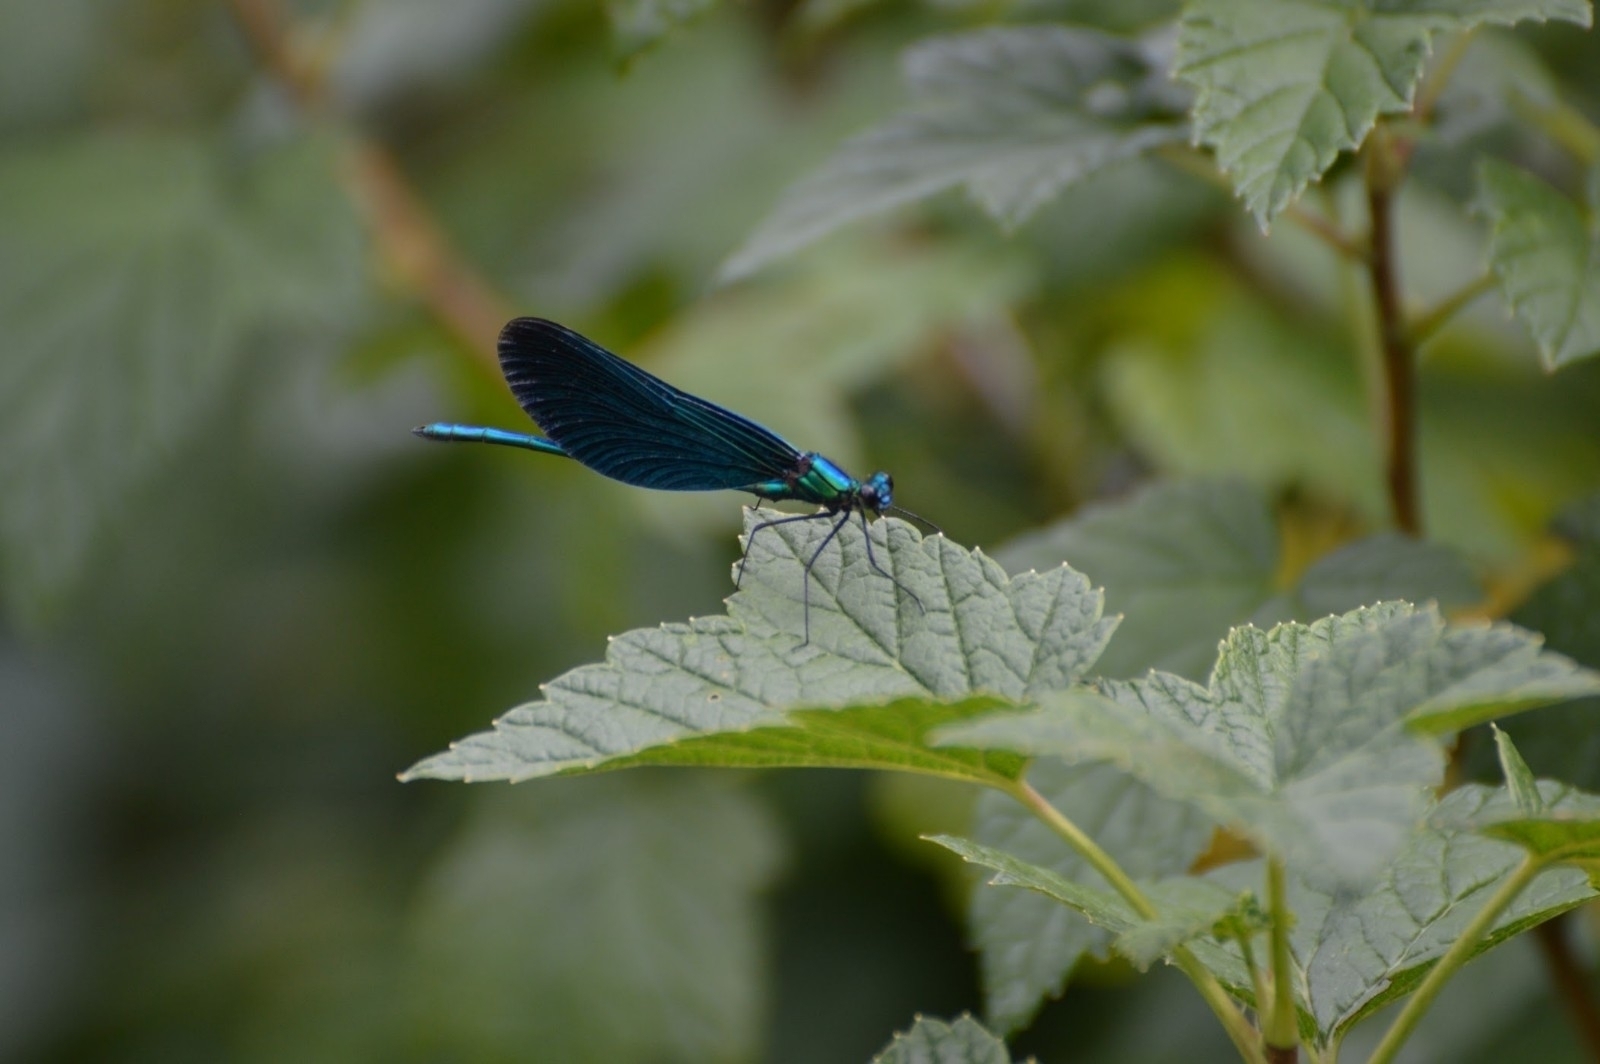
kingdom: Animalia
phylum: Arthropoda
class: Insecta
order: Odonata
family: Calopterygidae
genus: Calopteryx
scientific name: Calopteryx virgo
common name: Beautiful demoiselle
